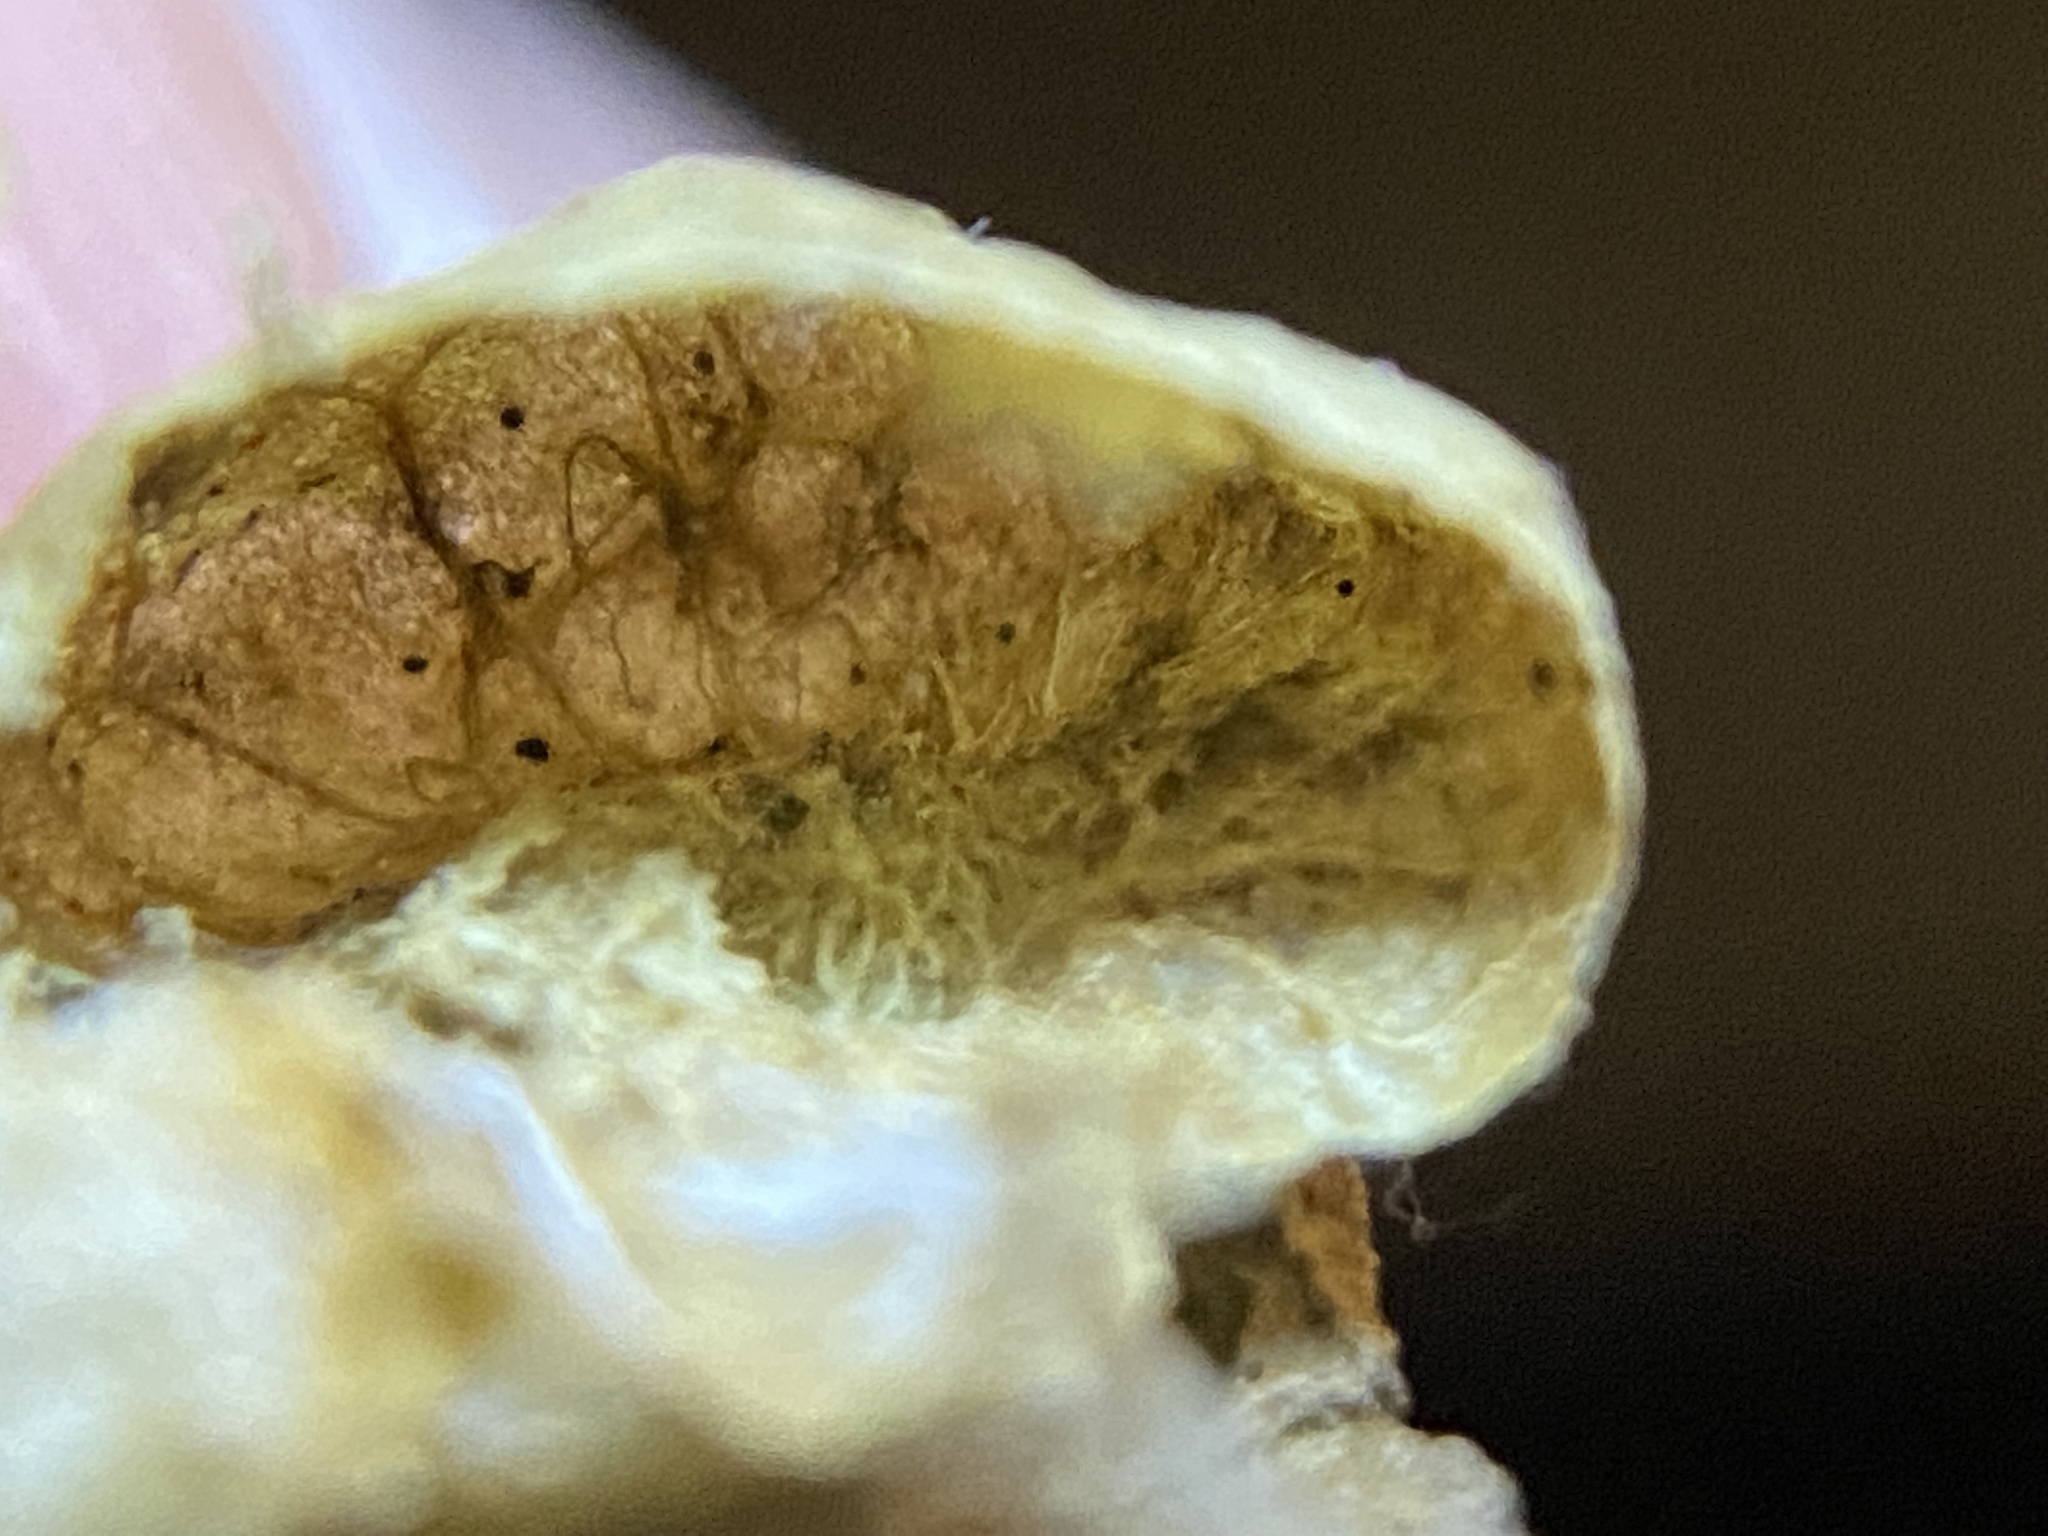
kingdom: Animalia
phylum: Arthropoda
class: Insecta
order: Hymenoptera
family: Cynipidae
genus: Amphibolips
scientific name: Amphibolips
